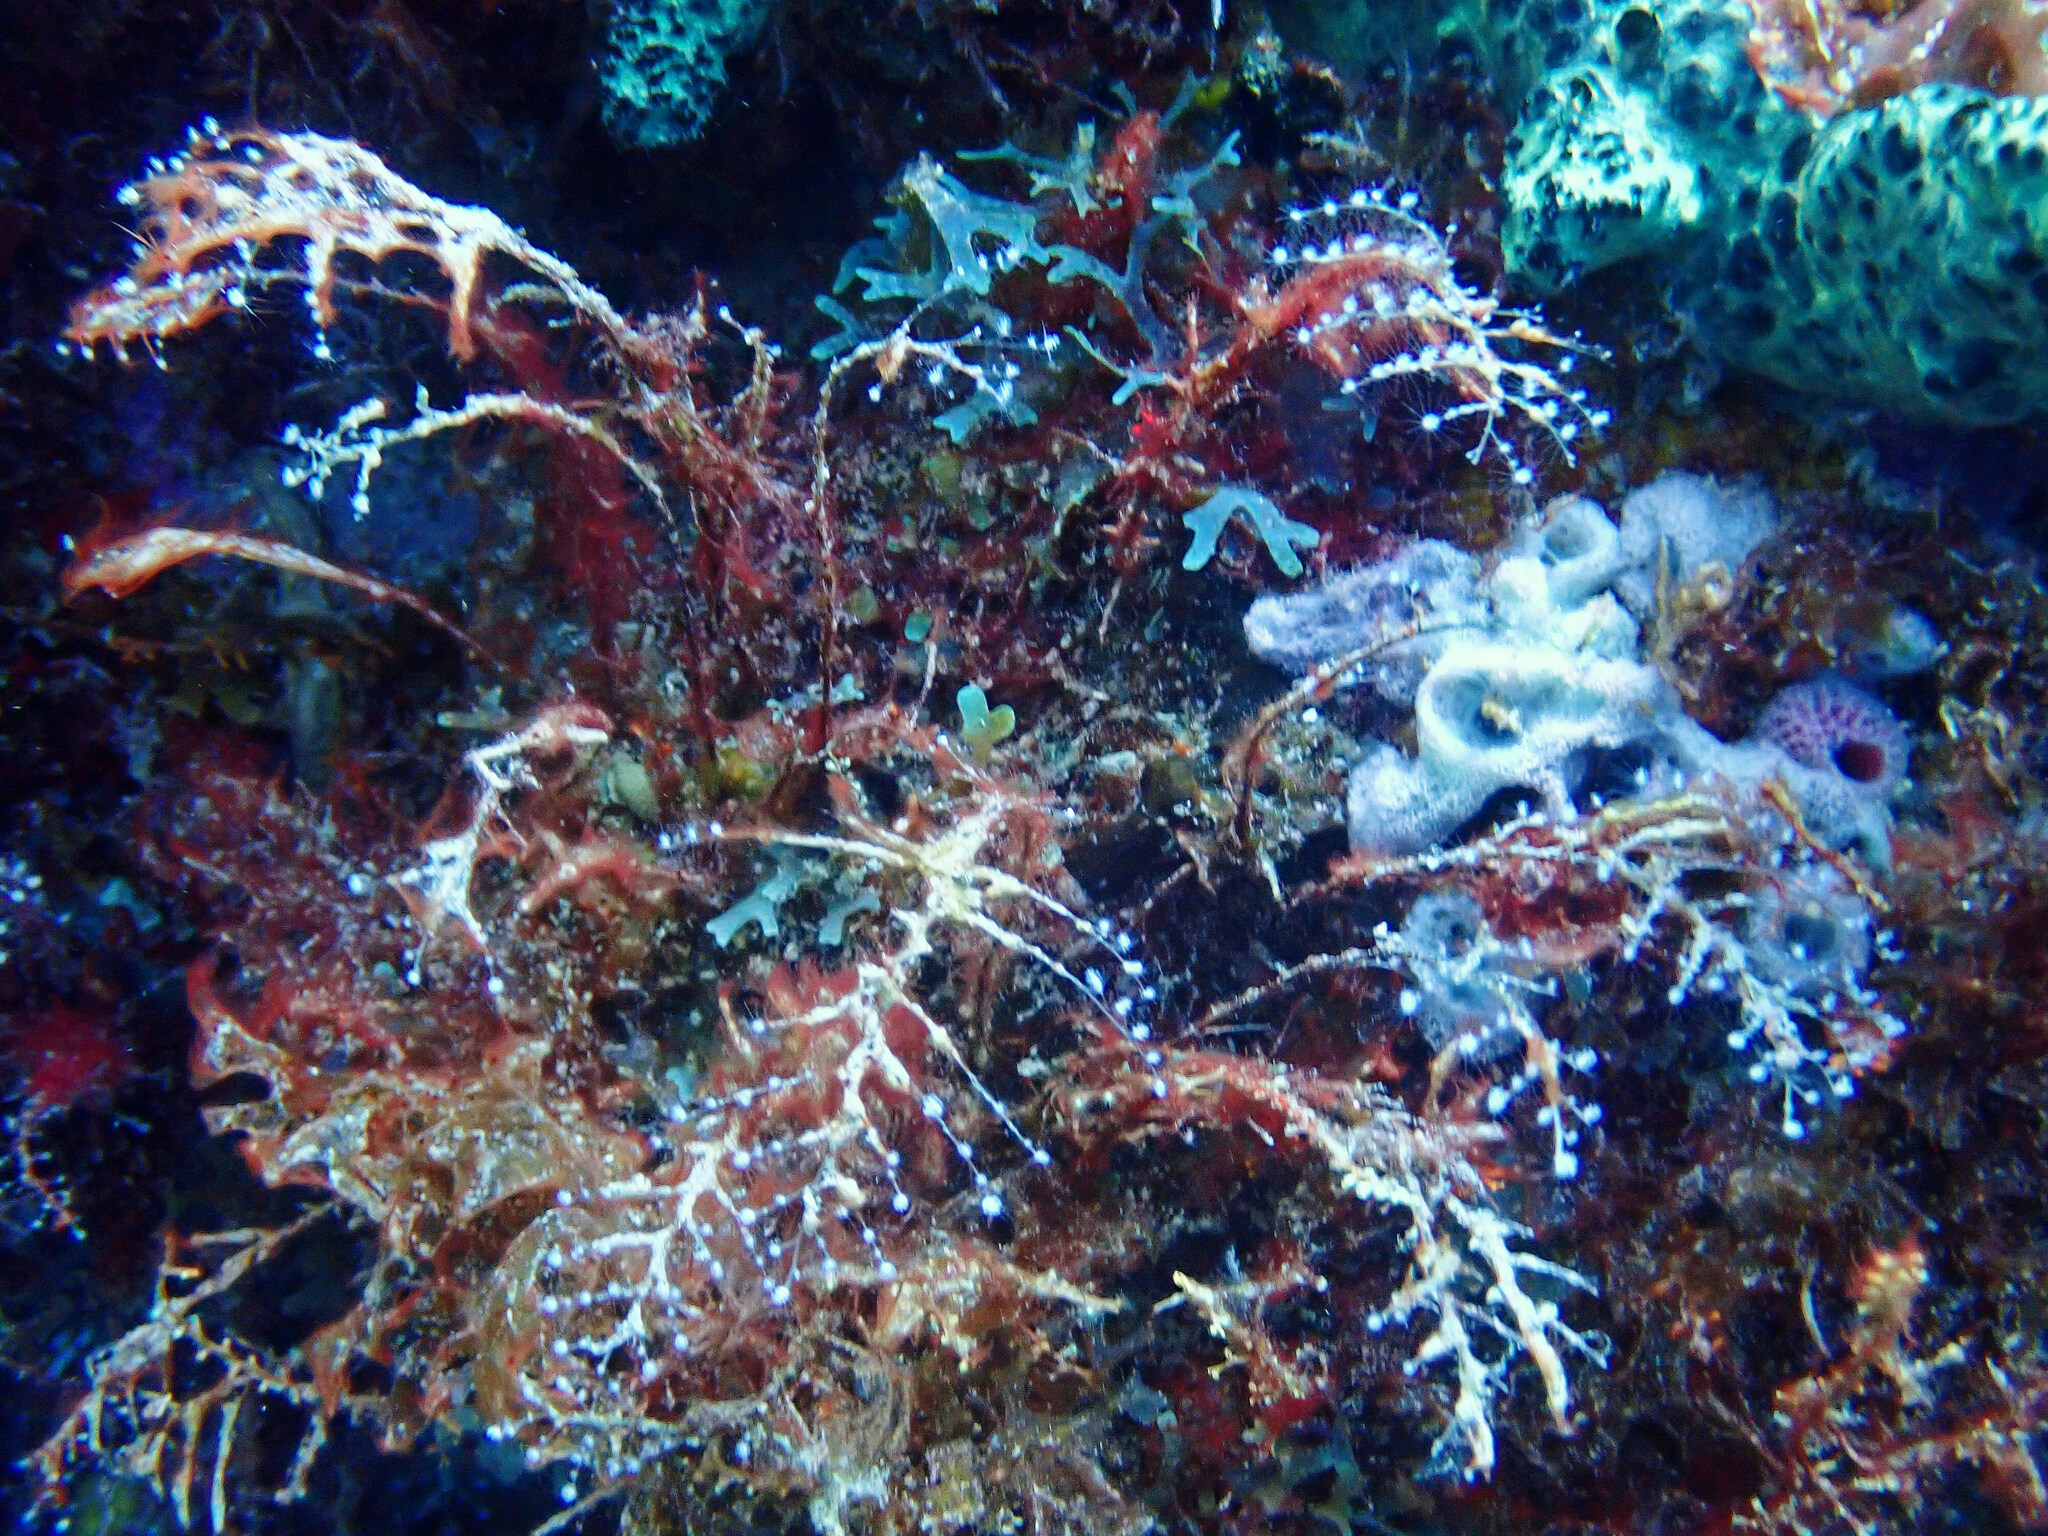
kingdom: Animalia
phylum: Cnidaria
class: Hydrozoa
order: Anthoathecata
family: Pennariidae
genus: Pennaria
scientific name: Pennaria disticha
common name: Feather hydroid
